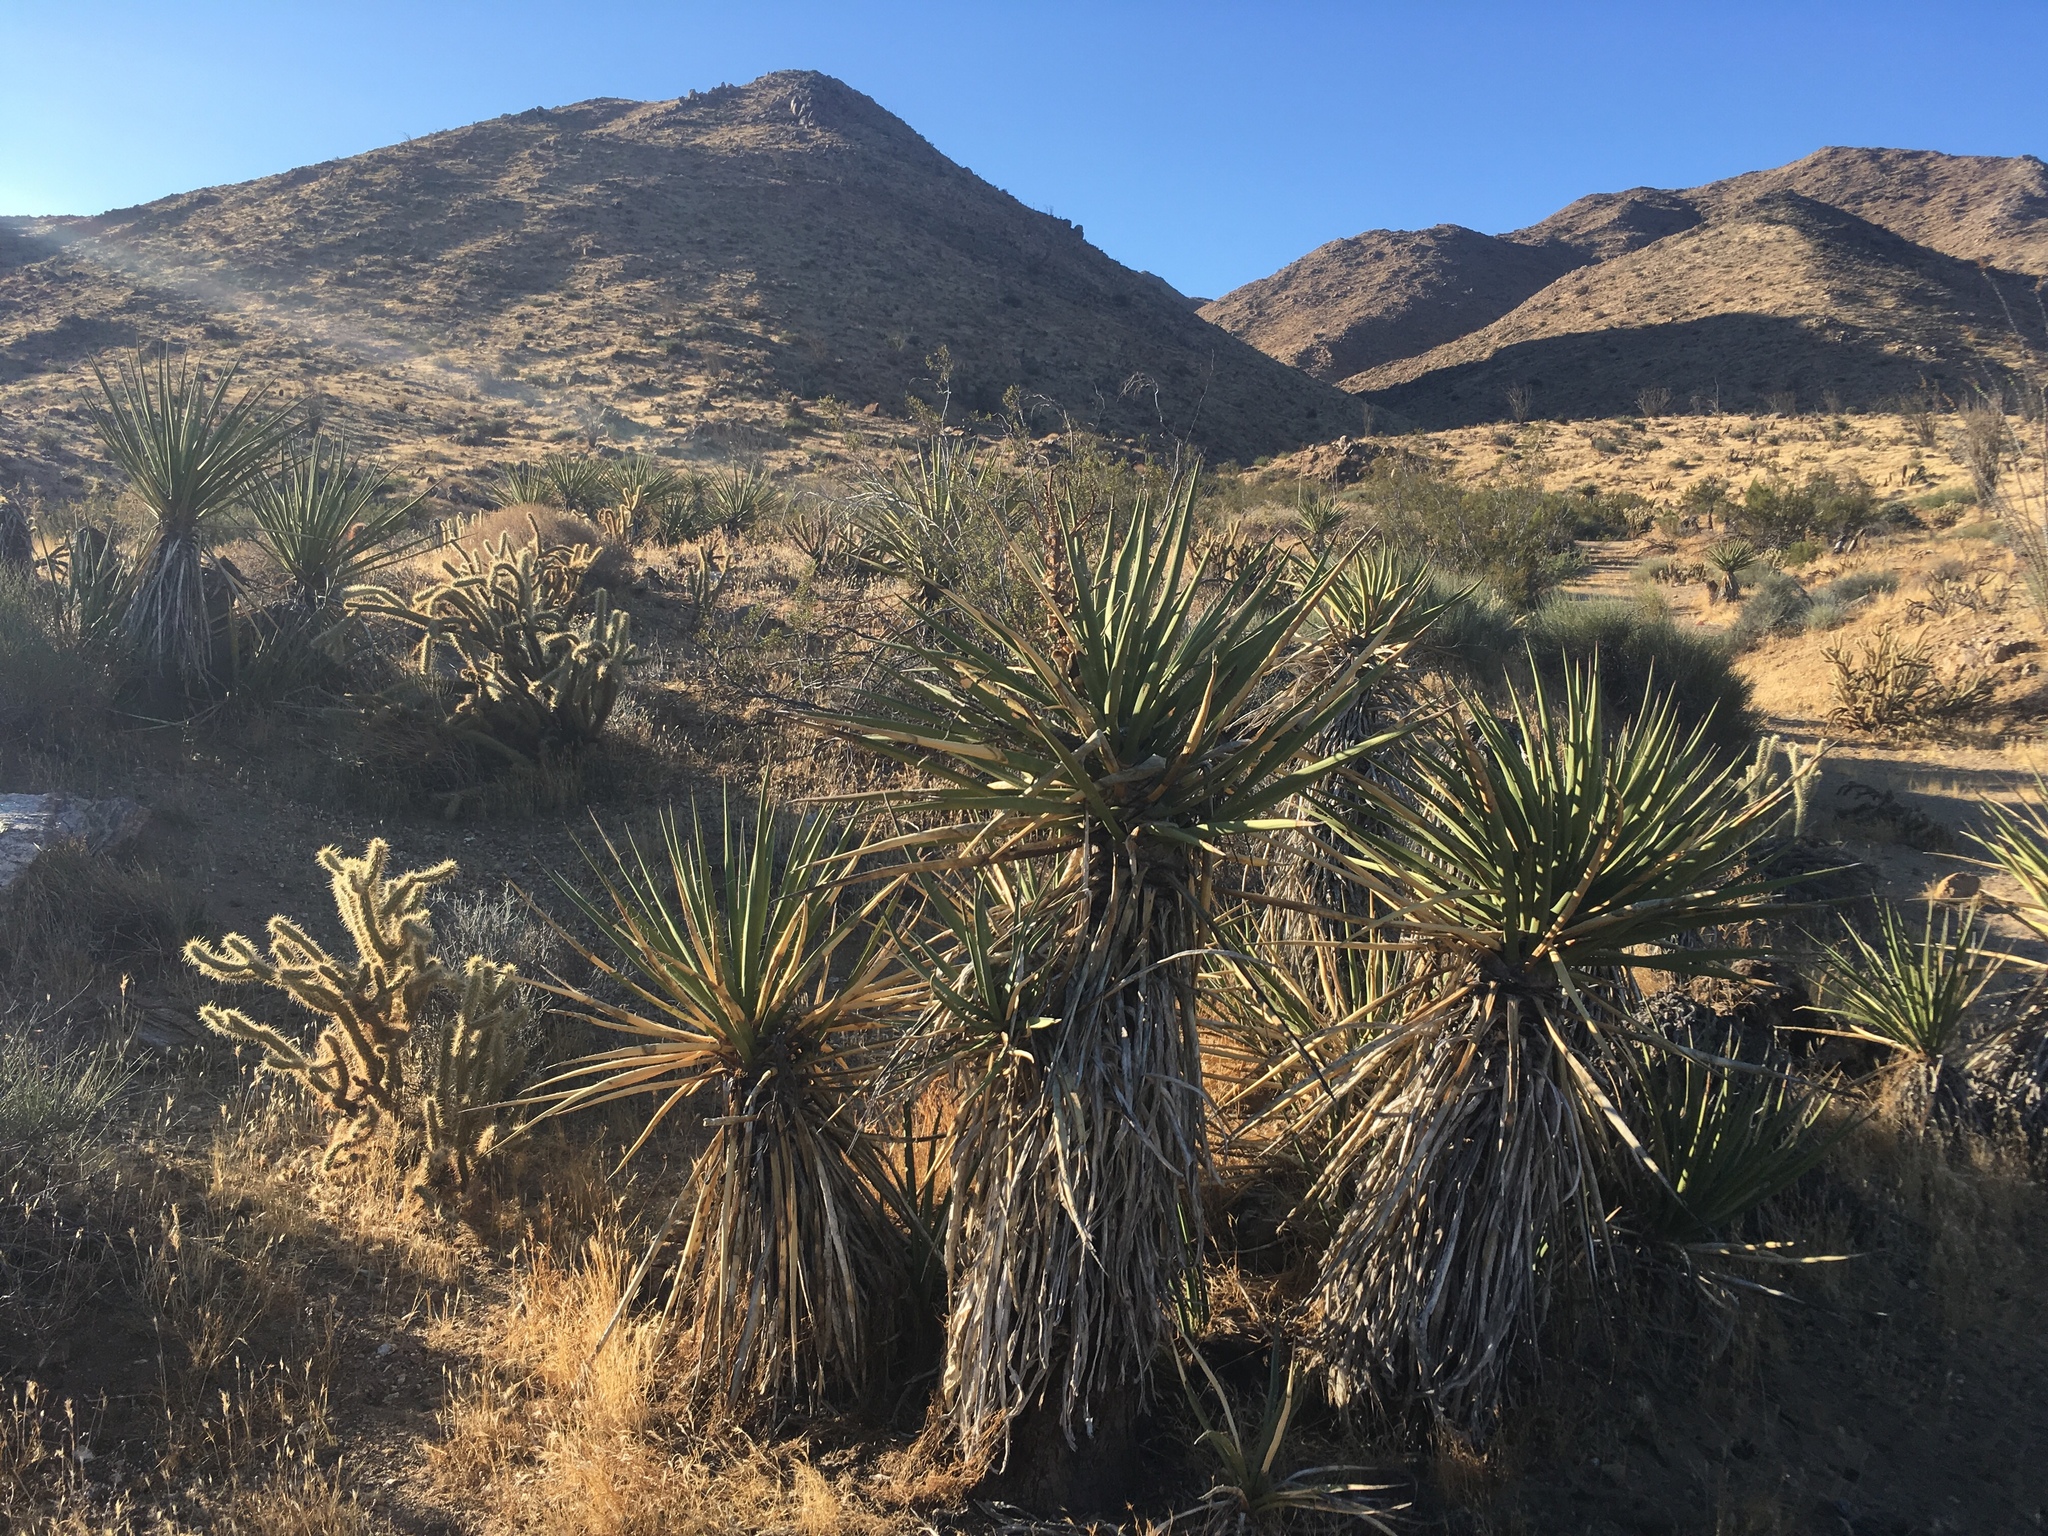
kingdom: Plantae
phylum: Tracheophyta
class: Liliopsida
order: Asparagales
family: Asparagaceae
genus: Yucca
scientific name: Yucca schidigera
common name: Mojave yucca
